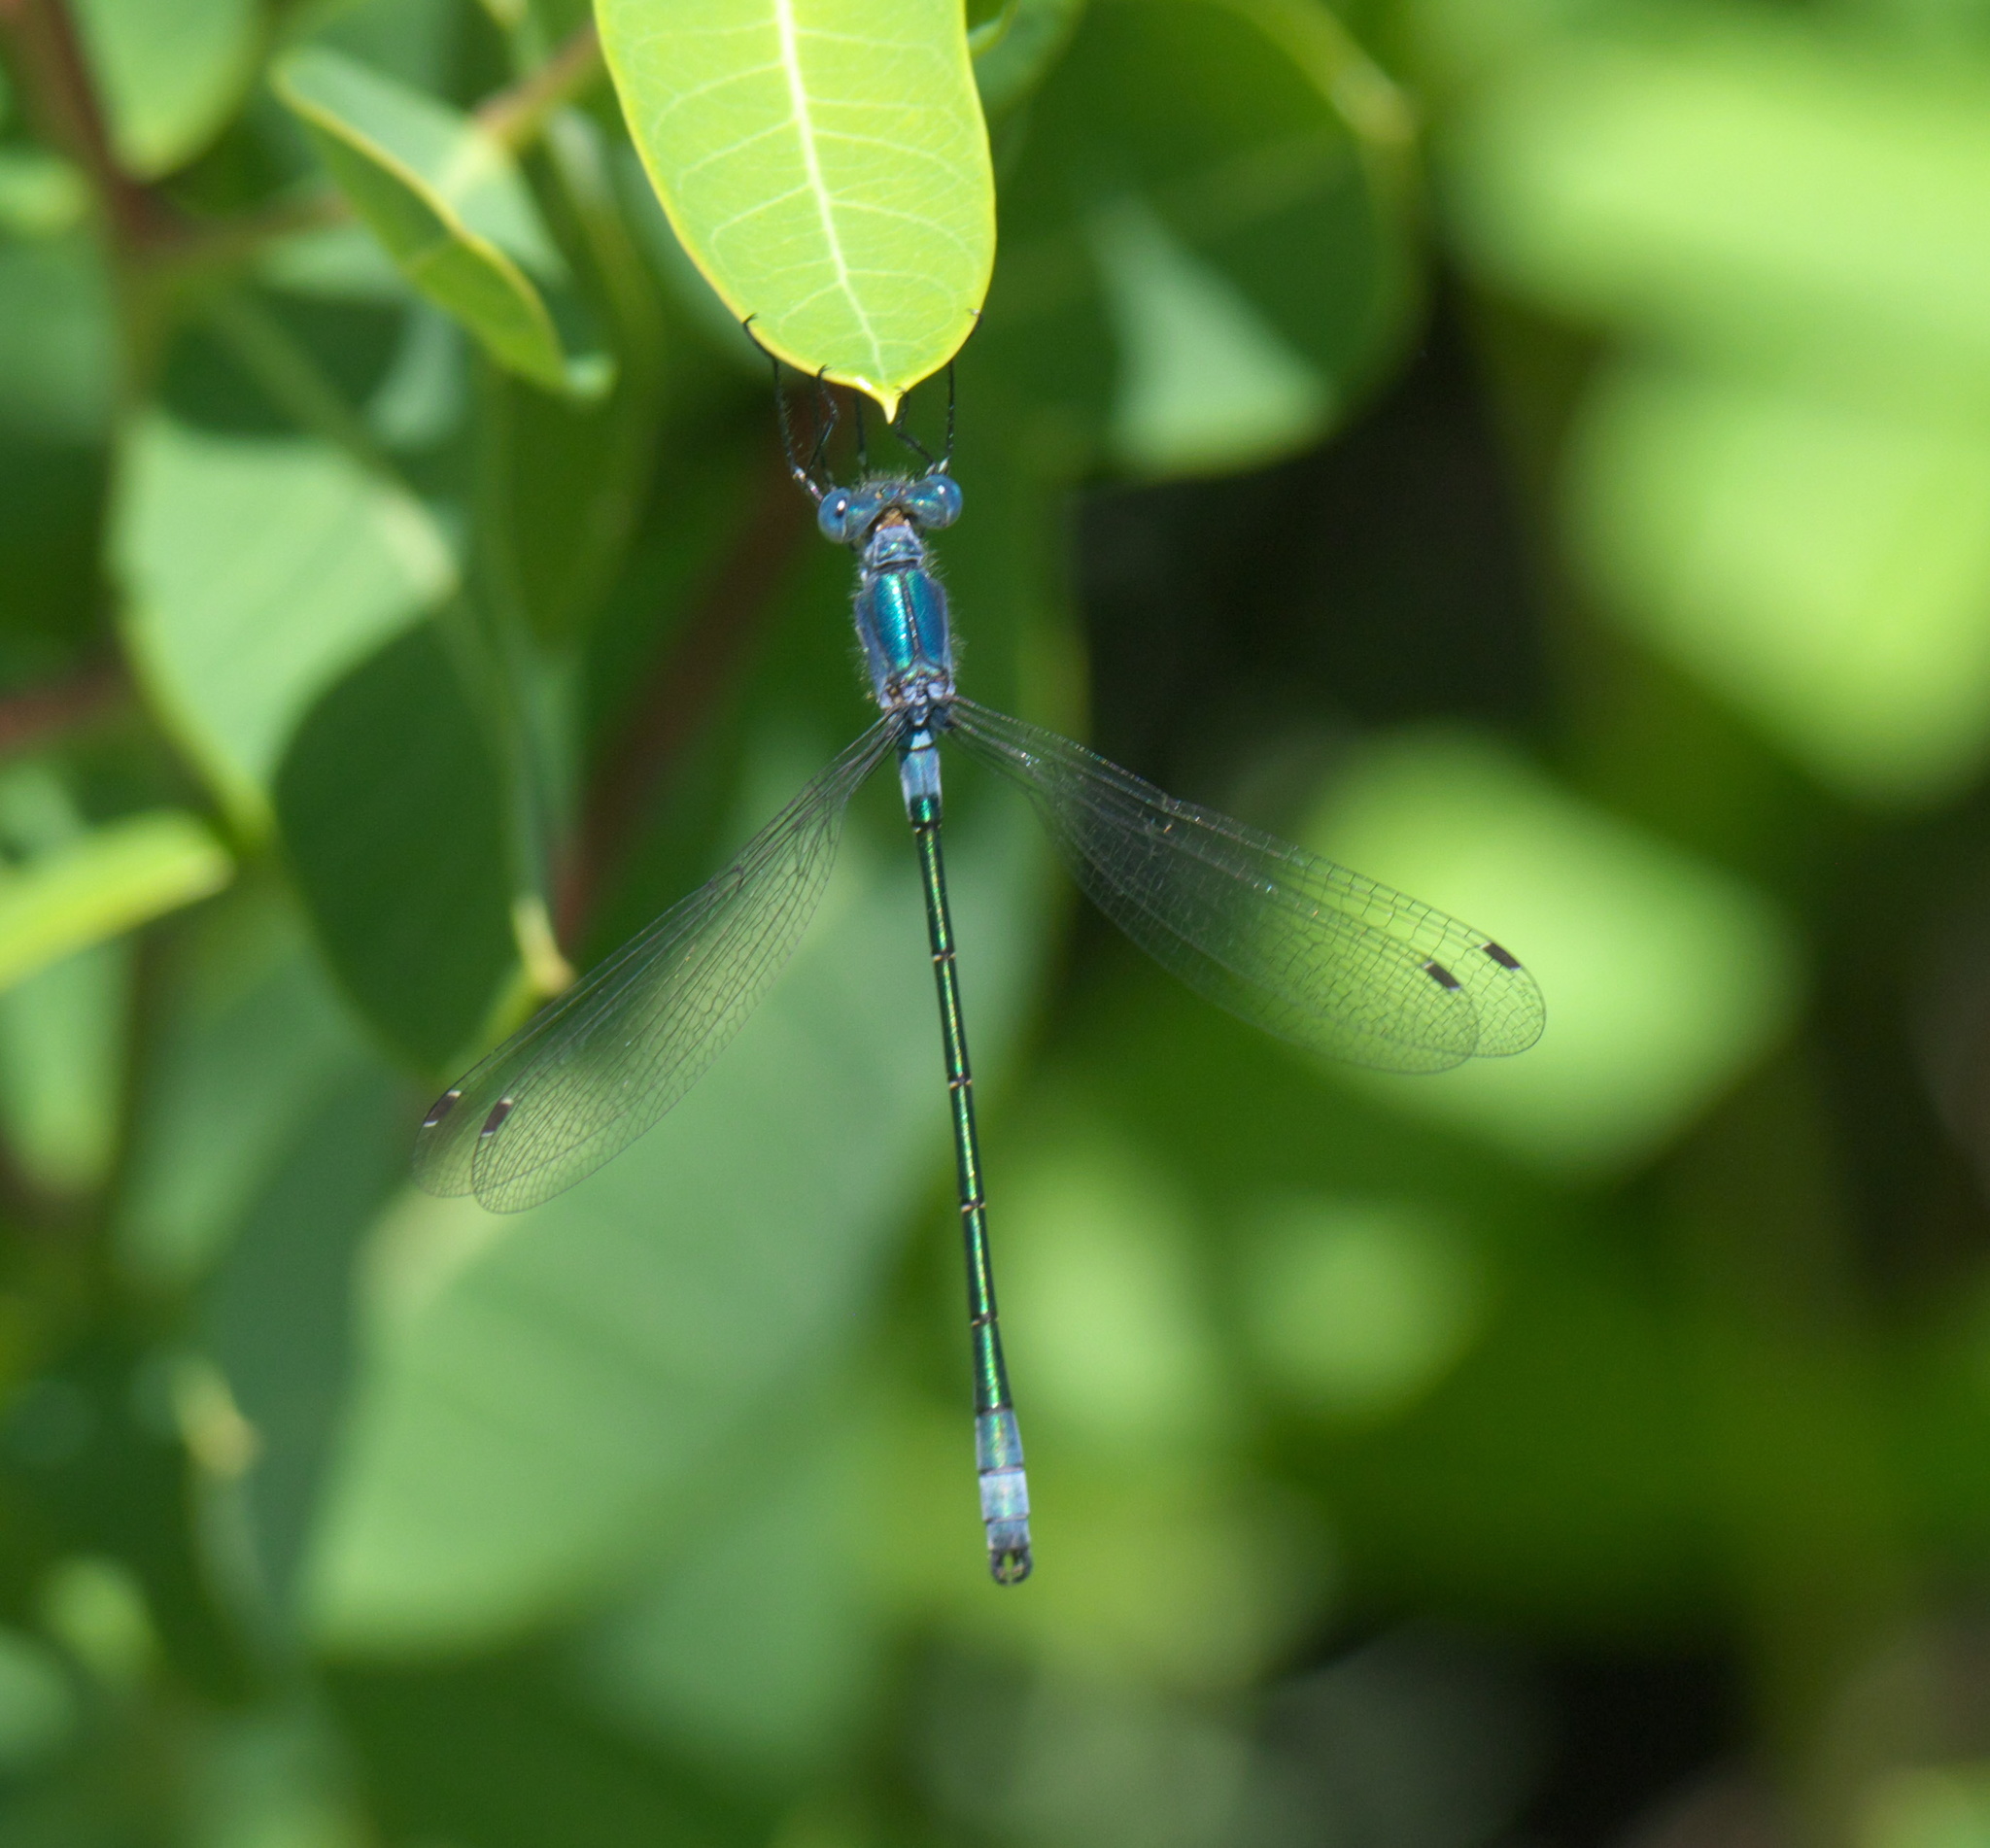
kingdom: Animalia
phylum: Arthropoda
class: Insecta
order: Odonata
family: Lestidae
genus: Lestes
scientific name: Lestes dryas
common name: Scarce emerald damselfly
